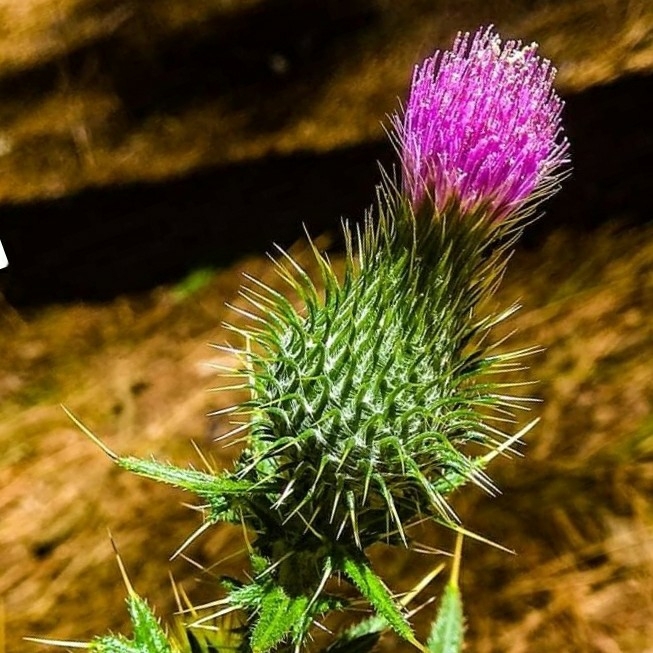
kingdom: Plantae
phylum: Tracheophyta
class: Magnoliopsida
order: Asterales
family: Asteraceae
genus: Cirsium
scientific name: Cirsium vulgare
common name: Bull thistle
